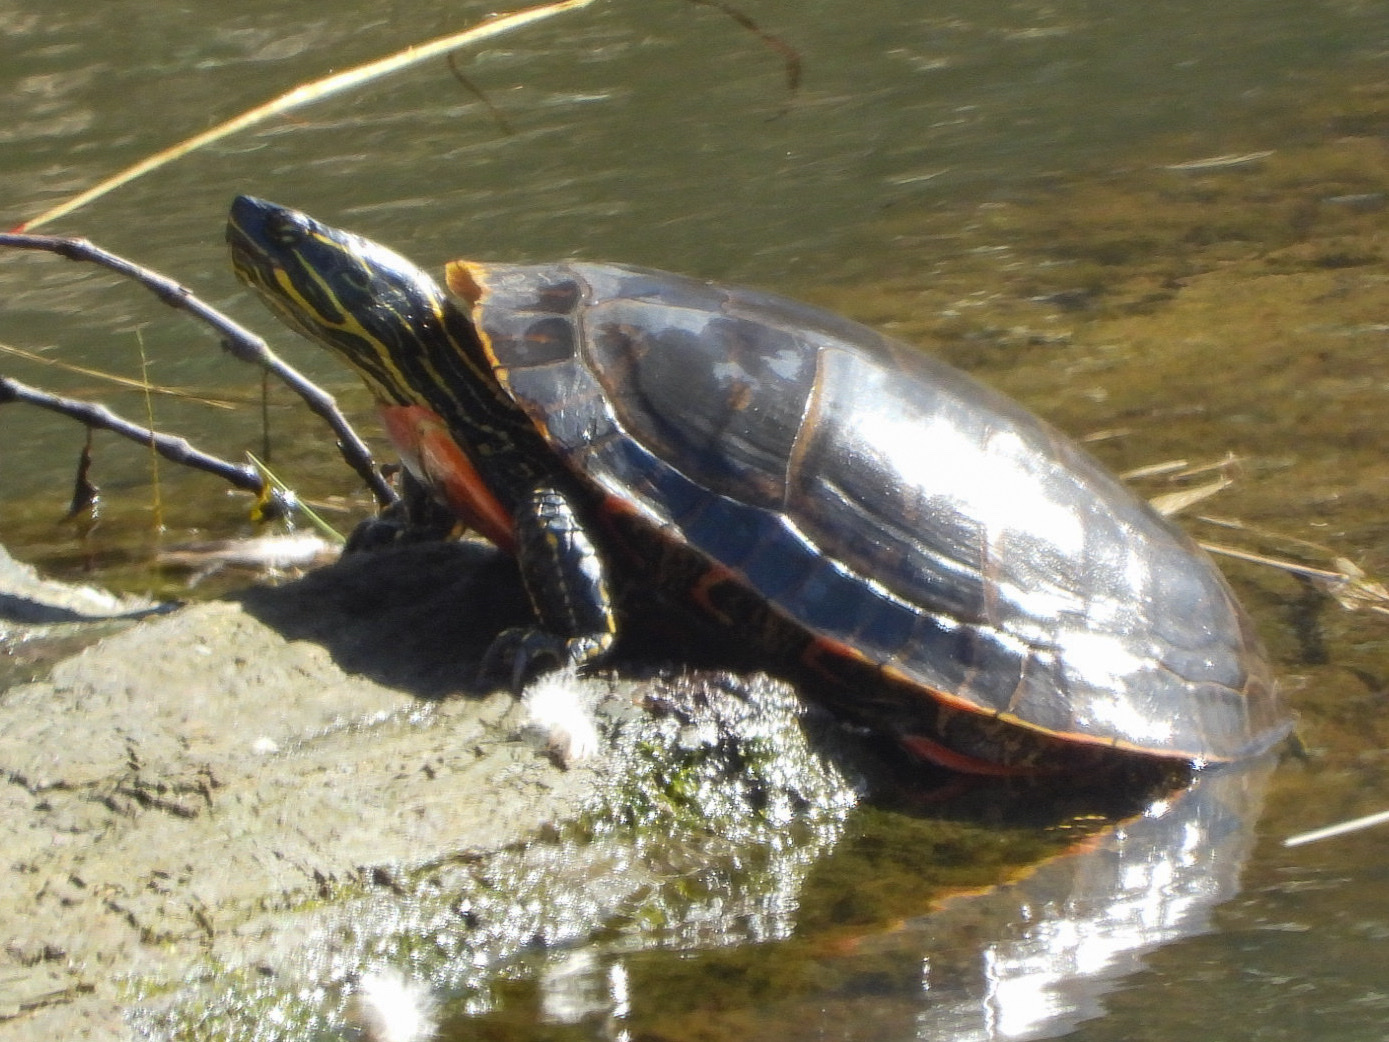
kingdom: Animalia
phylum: Chordata
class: Testudines
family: Emydidae
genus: Chrysemys
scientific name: Chrysemys picta
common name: Painted turtle
